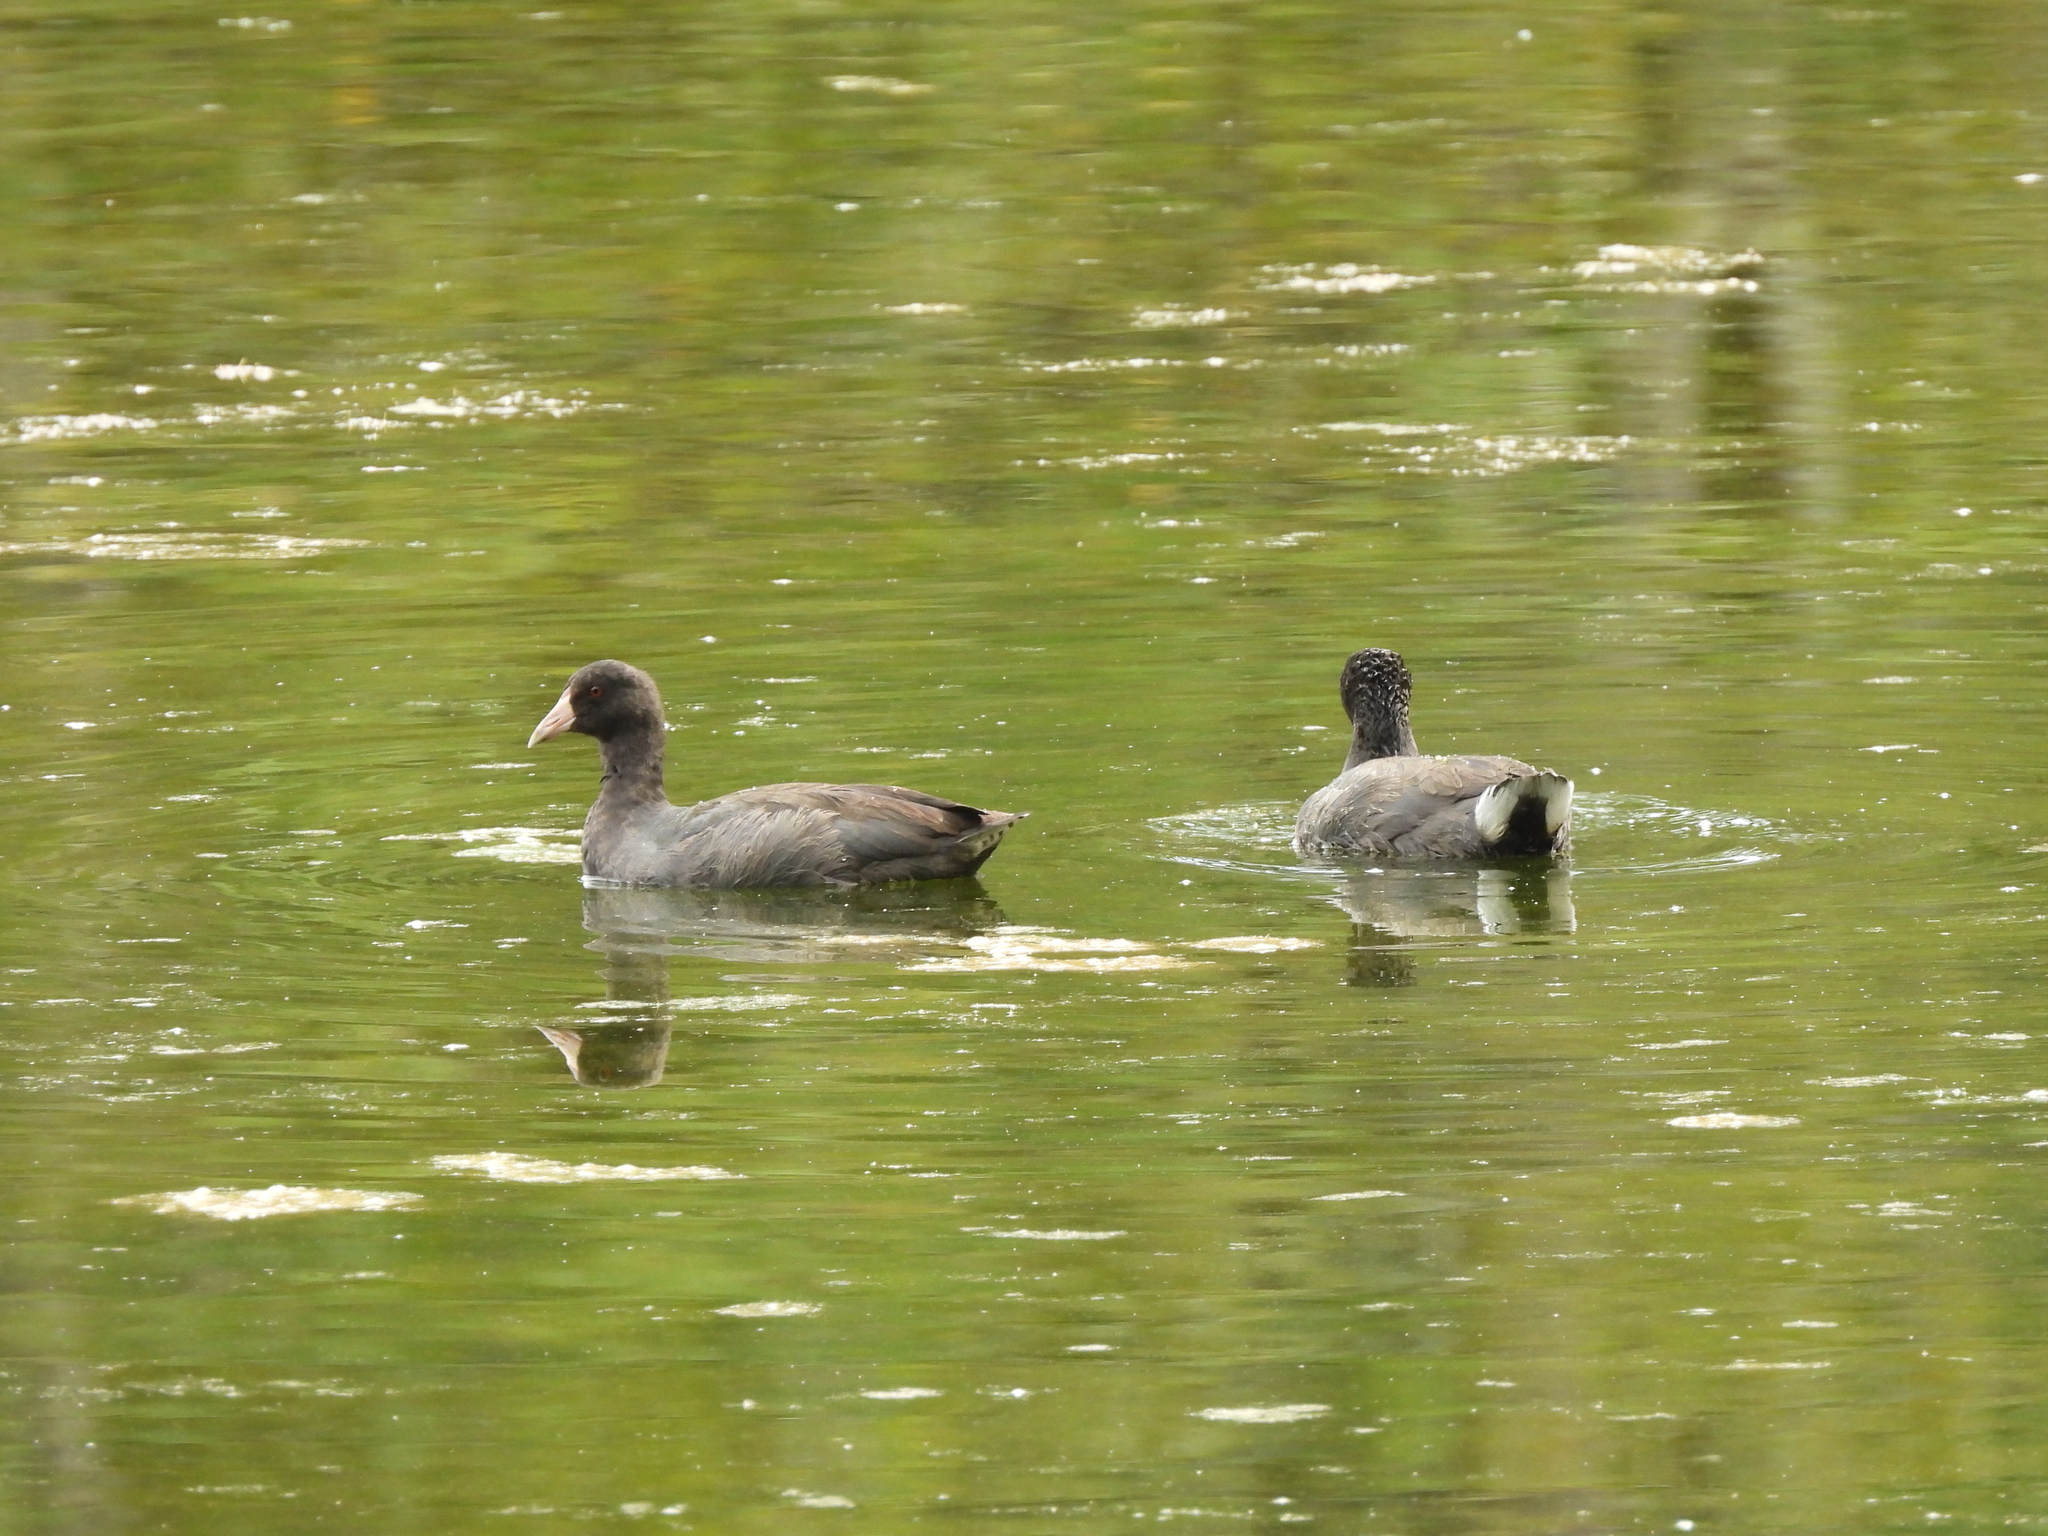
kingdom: Animalia
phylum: Chordata
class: Aves
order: Gruiformes
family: Rallidae
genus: Fulica
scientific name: Fulica americana
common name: American coot
